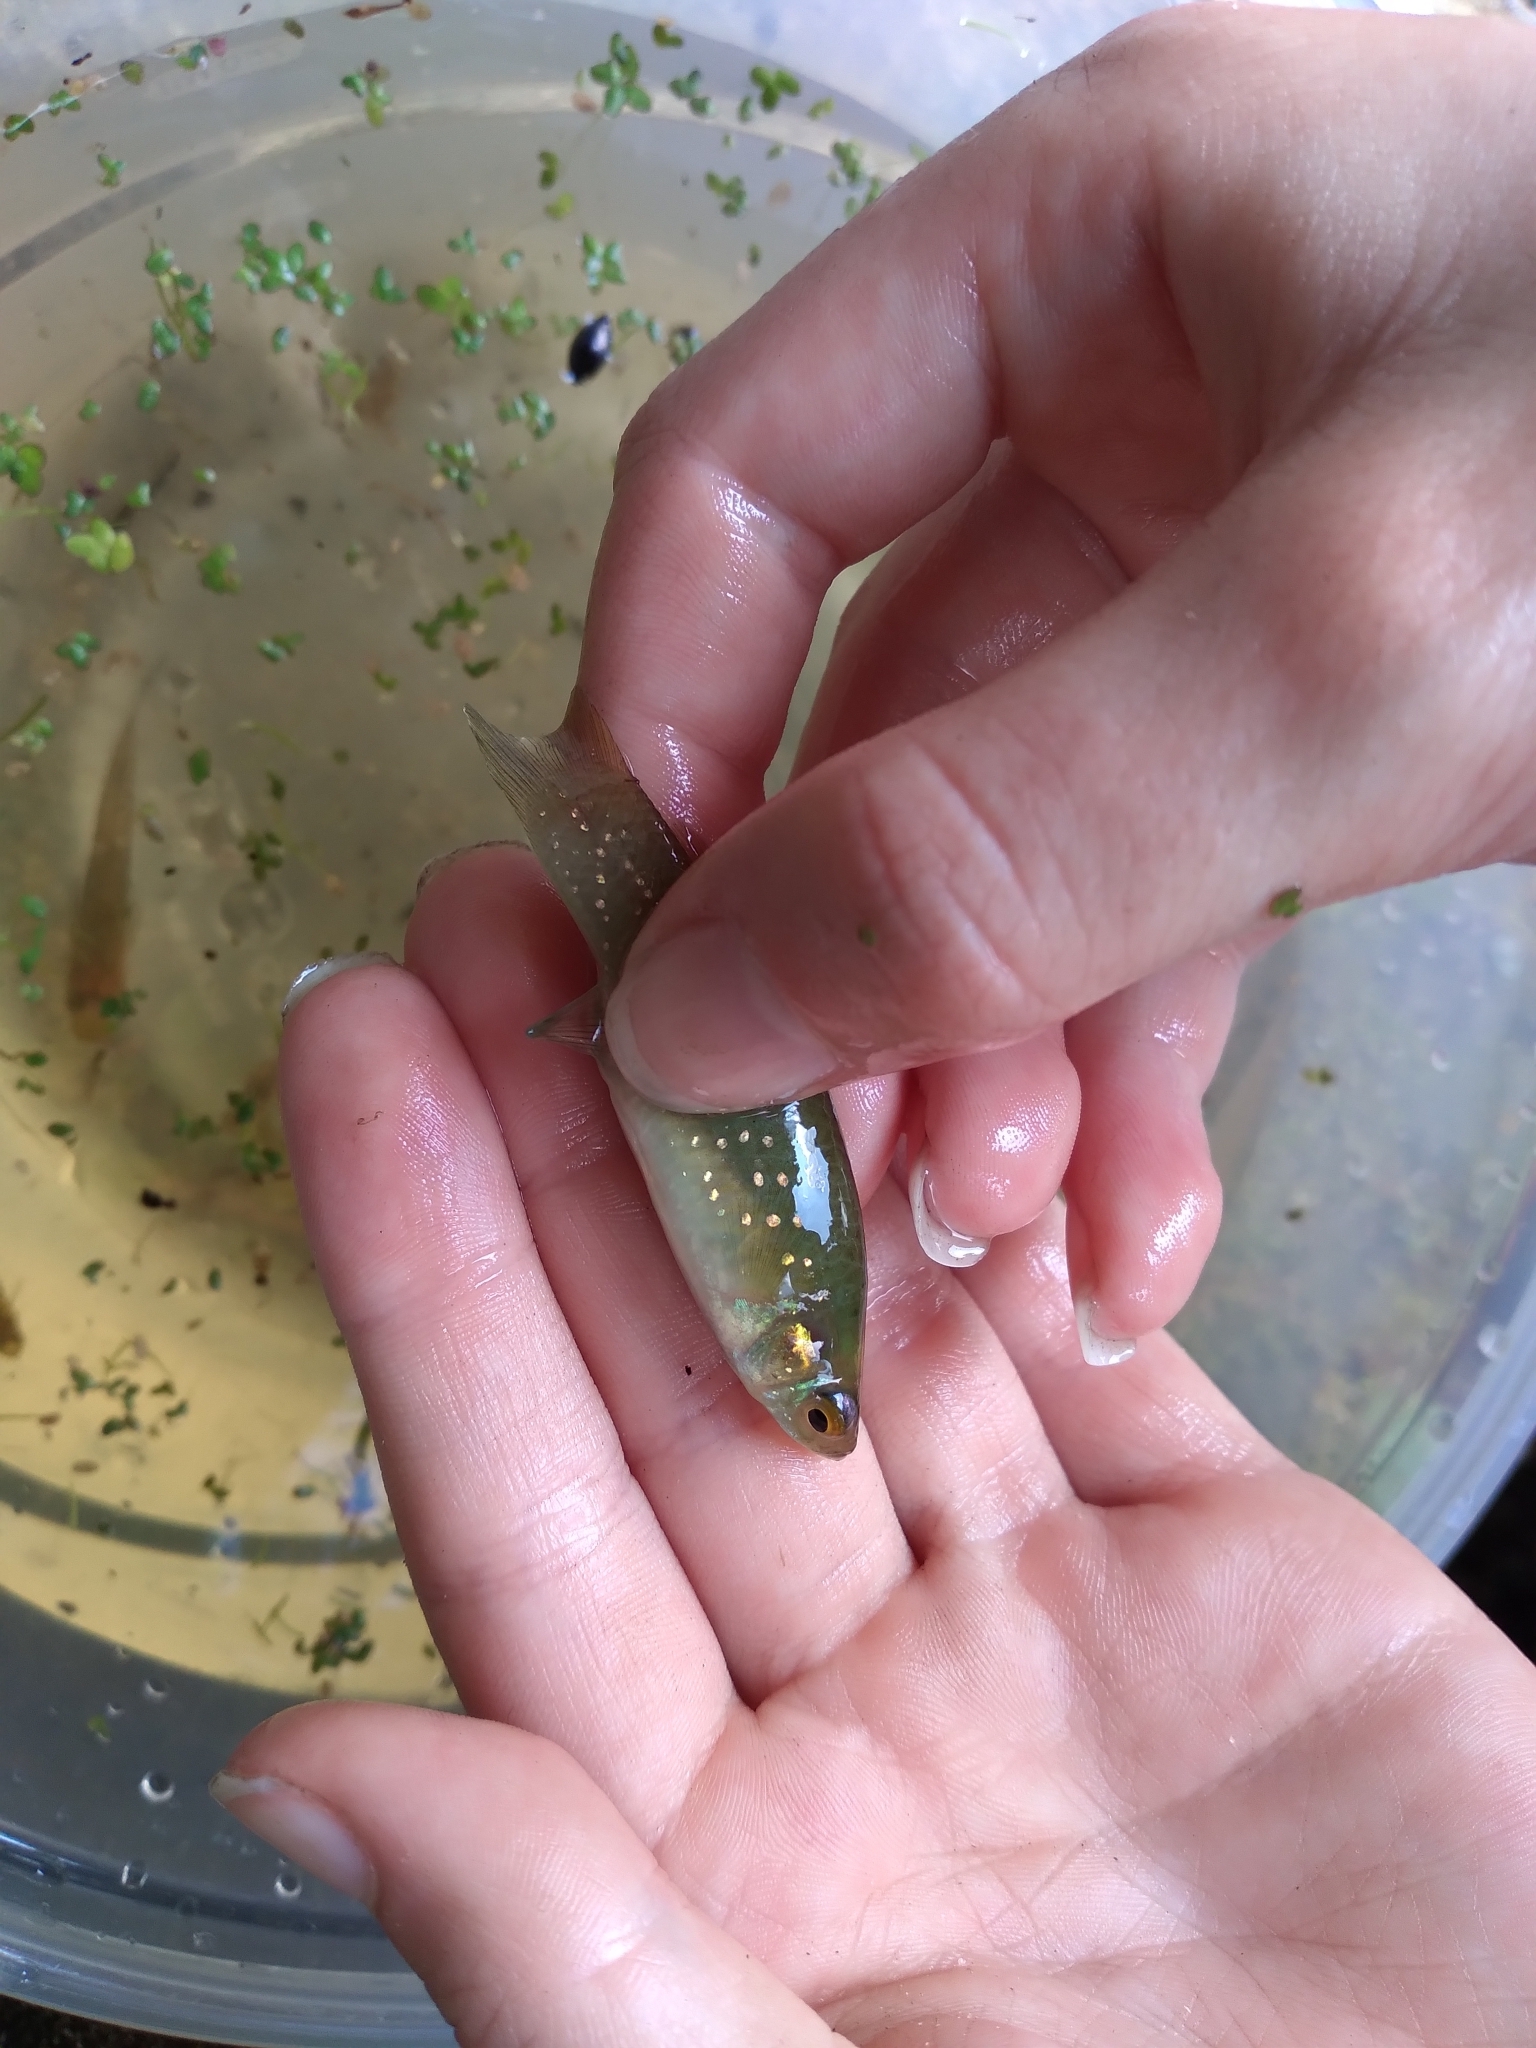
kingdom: Animalia
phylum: Chordata
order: Cyprinodontiformes
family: Fundulidae
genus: Fundulus
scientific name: Fundulus chrysotus
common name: Golden topminnow
